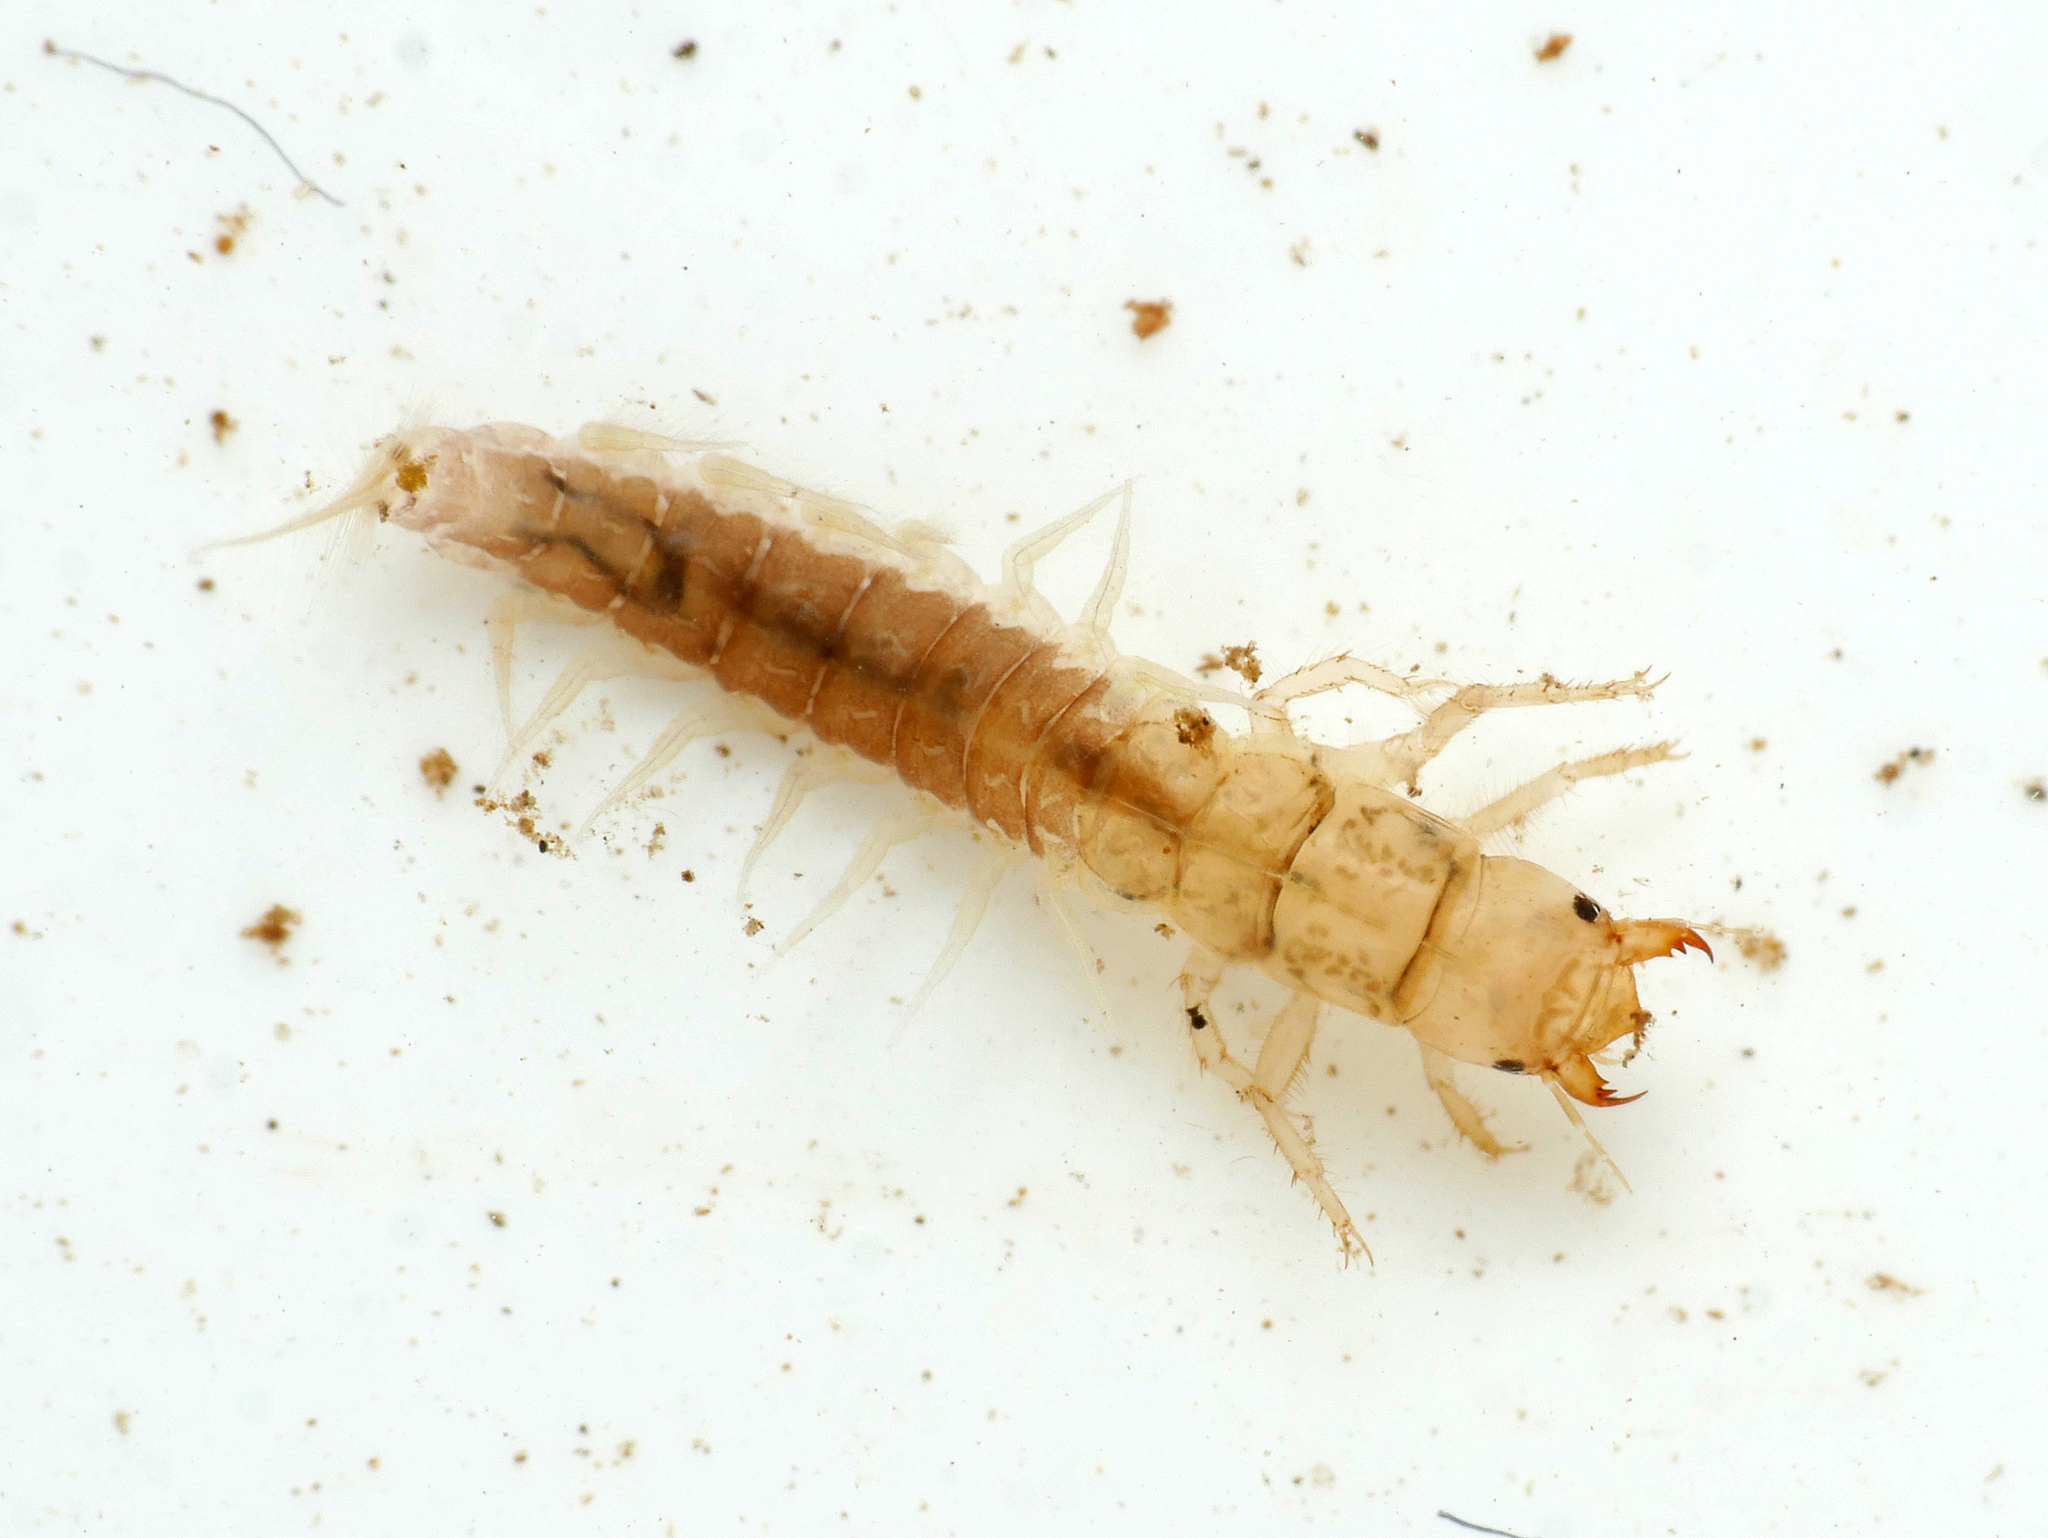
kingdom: Animalia
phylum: Arthropoda
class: Insecta
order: Megaloptera
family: Sialidae
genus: Sialis
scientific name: Sialis nigripes
